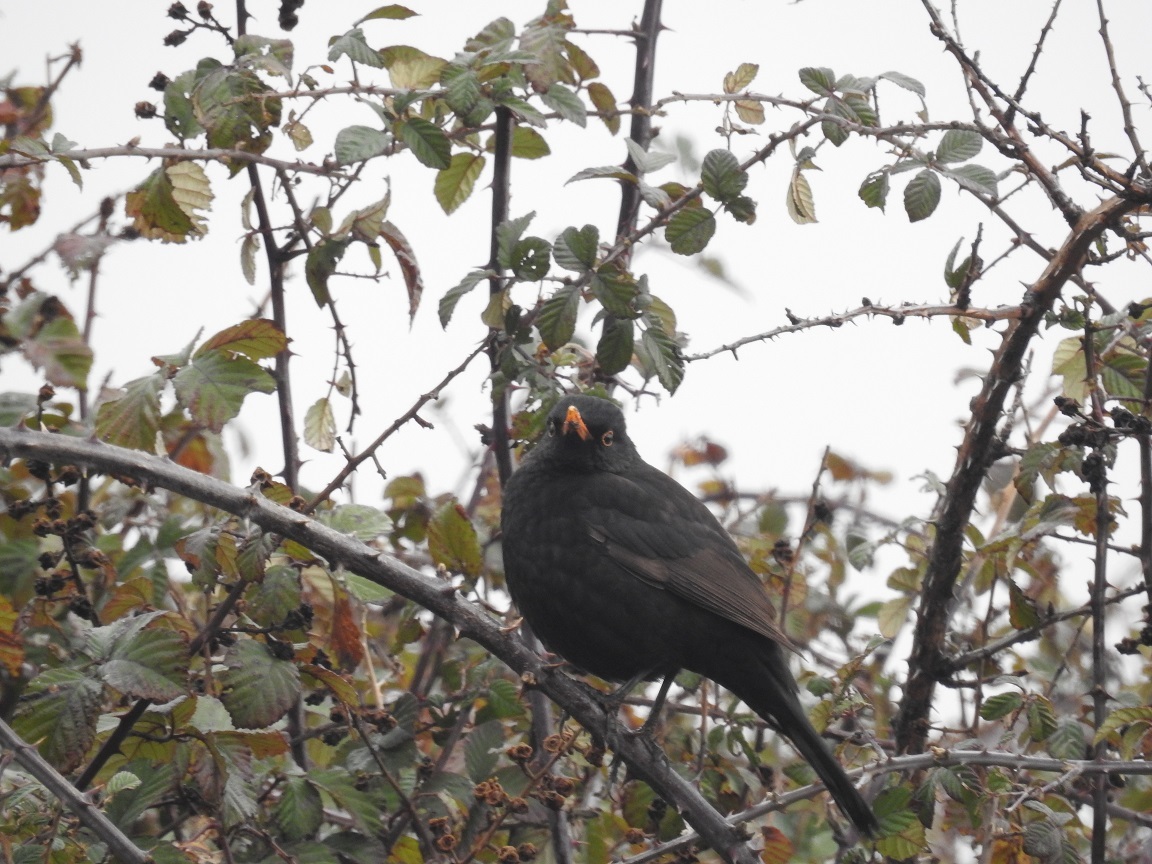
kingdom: Animalia
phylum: Chordata
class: Aves
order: Passeriformes
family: Turdidae
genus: Turdus
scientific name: Turdus merula
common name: Common blackbird
